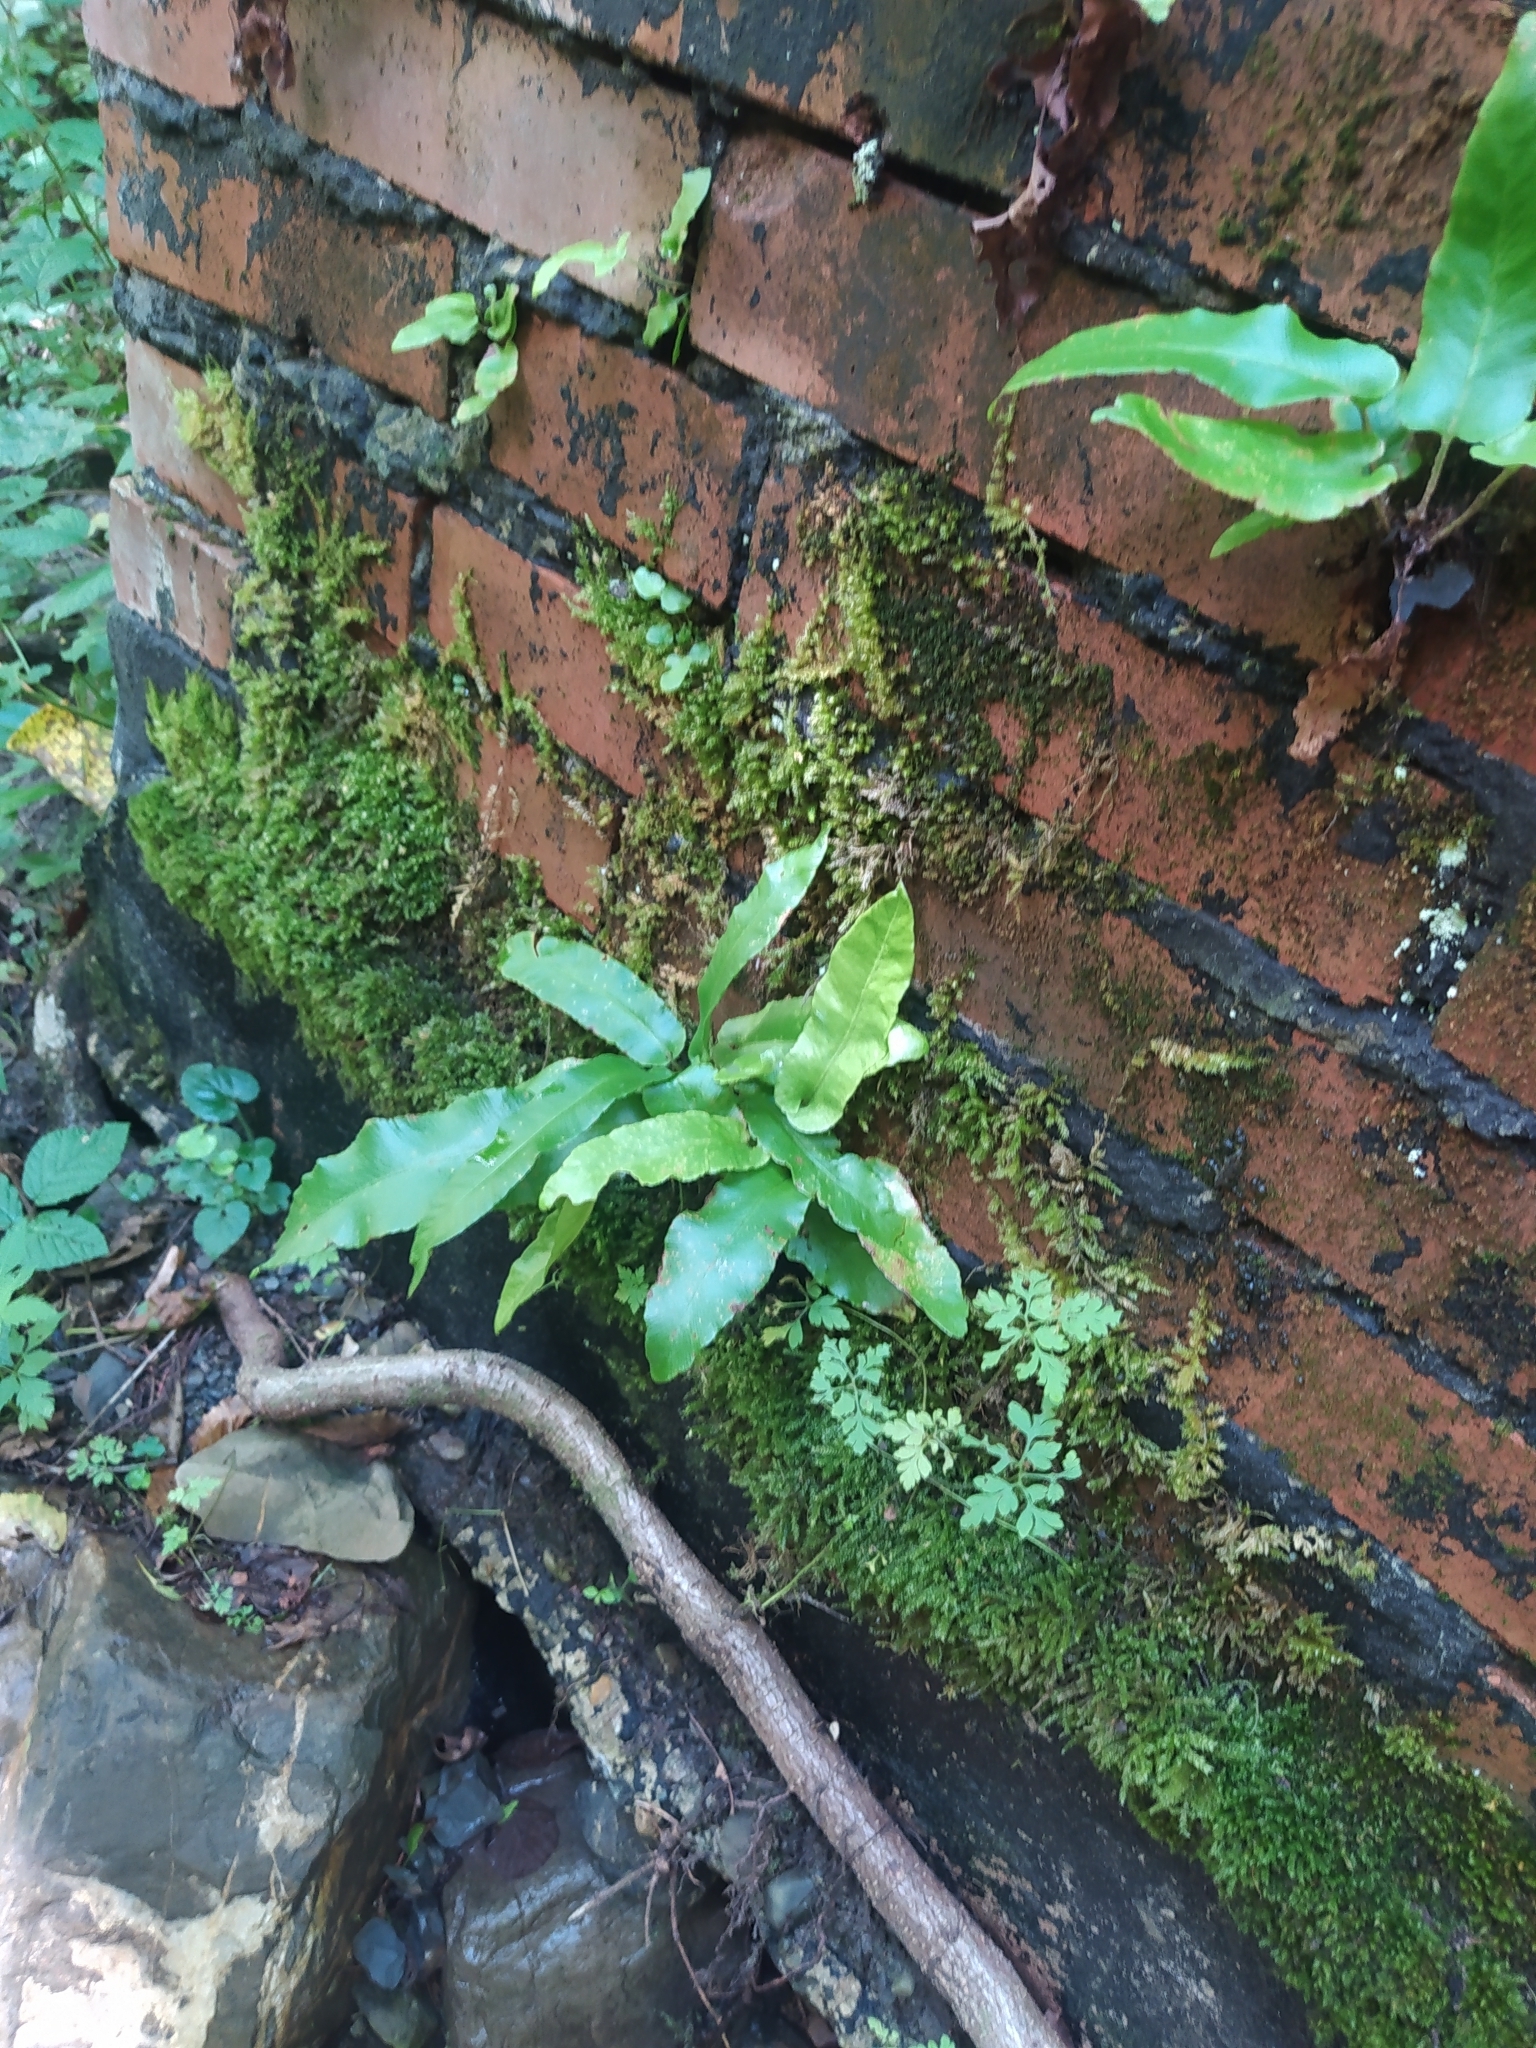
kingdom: Plantae
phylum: Tracheophyta
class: Polypodiopsida
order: Polypodiales
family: Aspleniaceae
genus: Asplenium
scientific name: Asplenium scolopendrium
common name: Hart's-tongue fern
